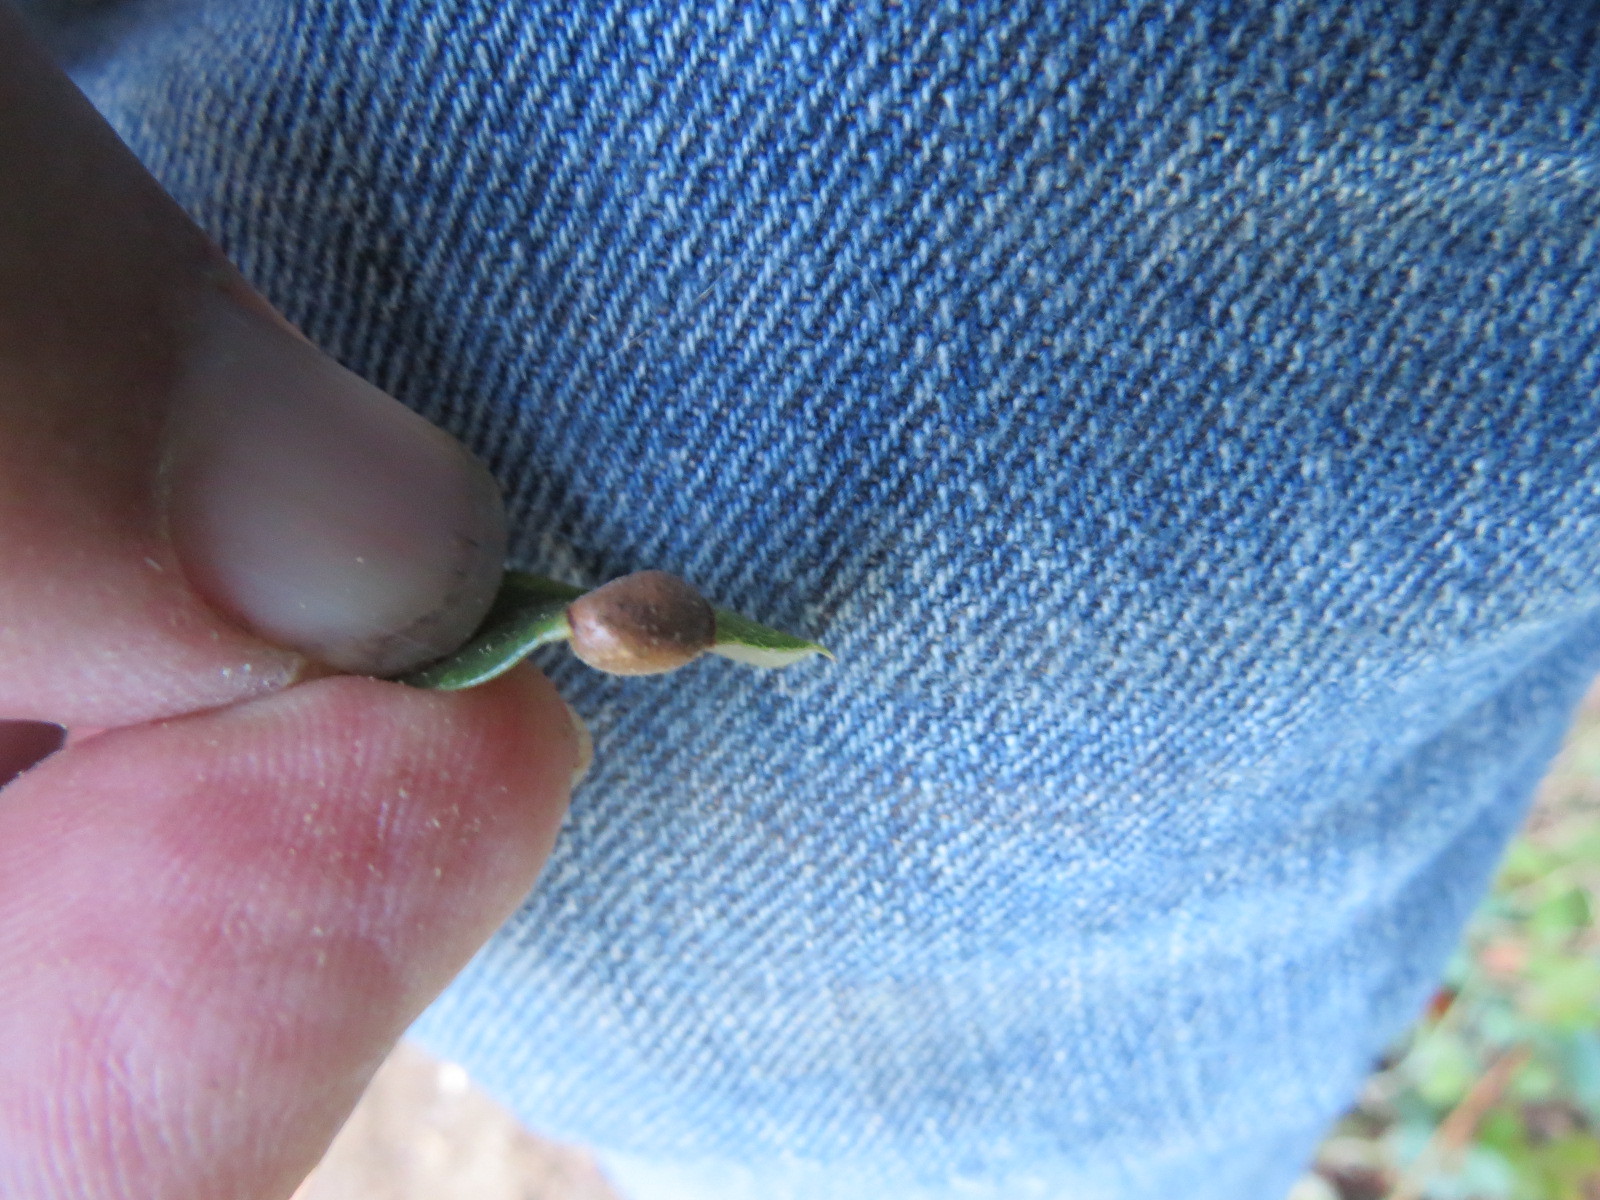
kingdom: Animalia
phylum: Arthropoda
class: Insecta
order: Hymenoptera
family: Cynipidae
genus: Heteroecus
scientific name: Heteroecus
